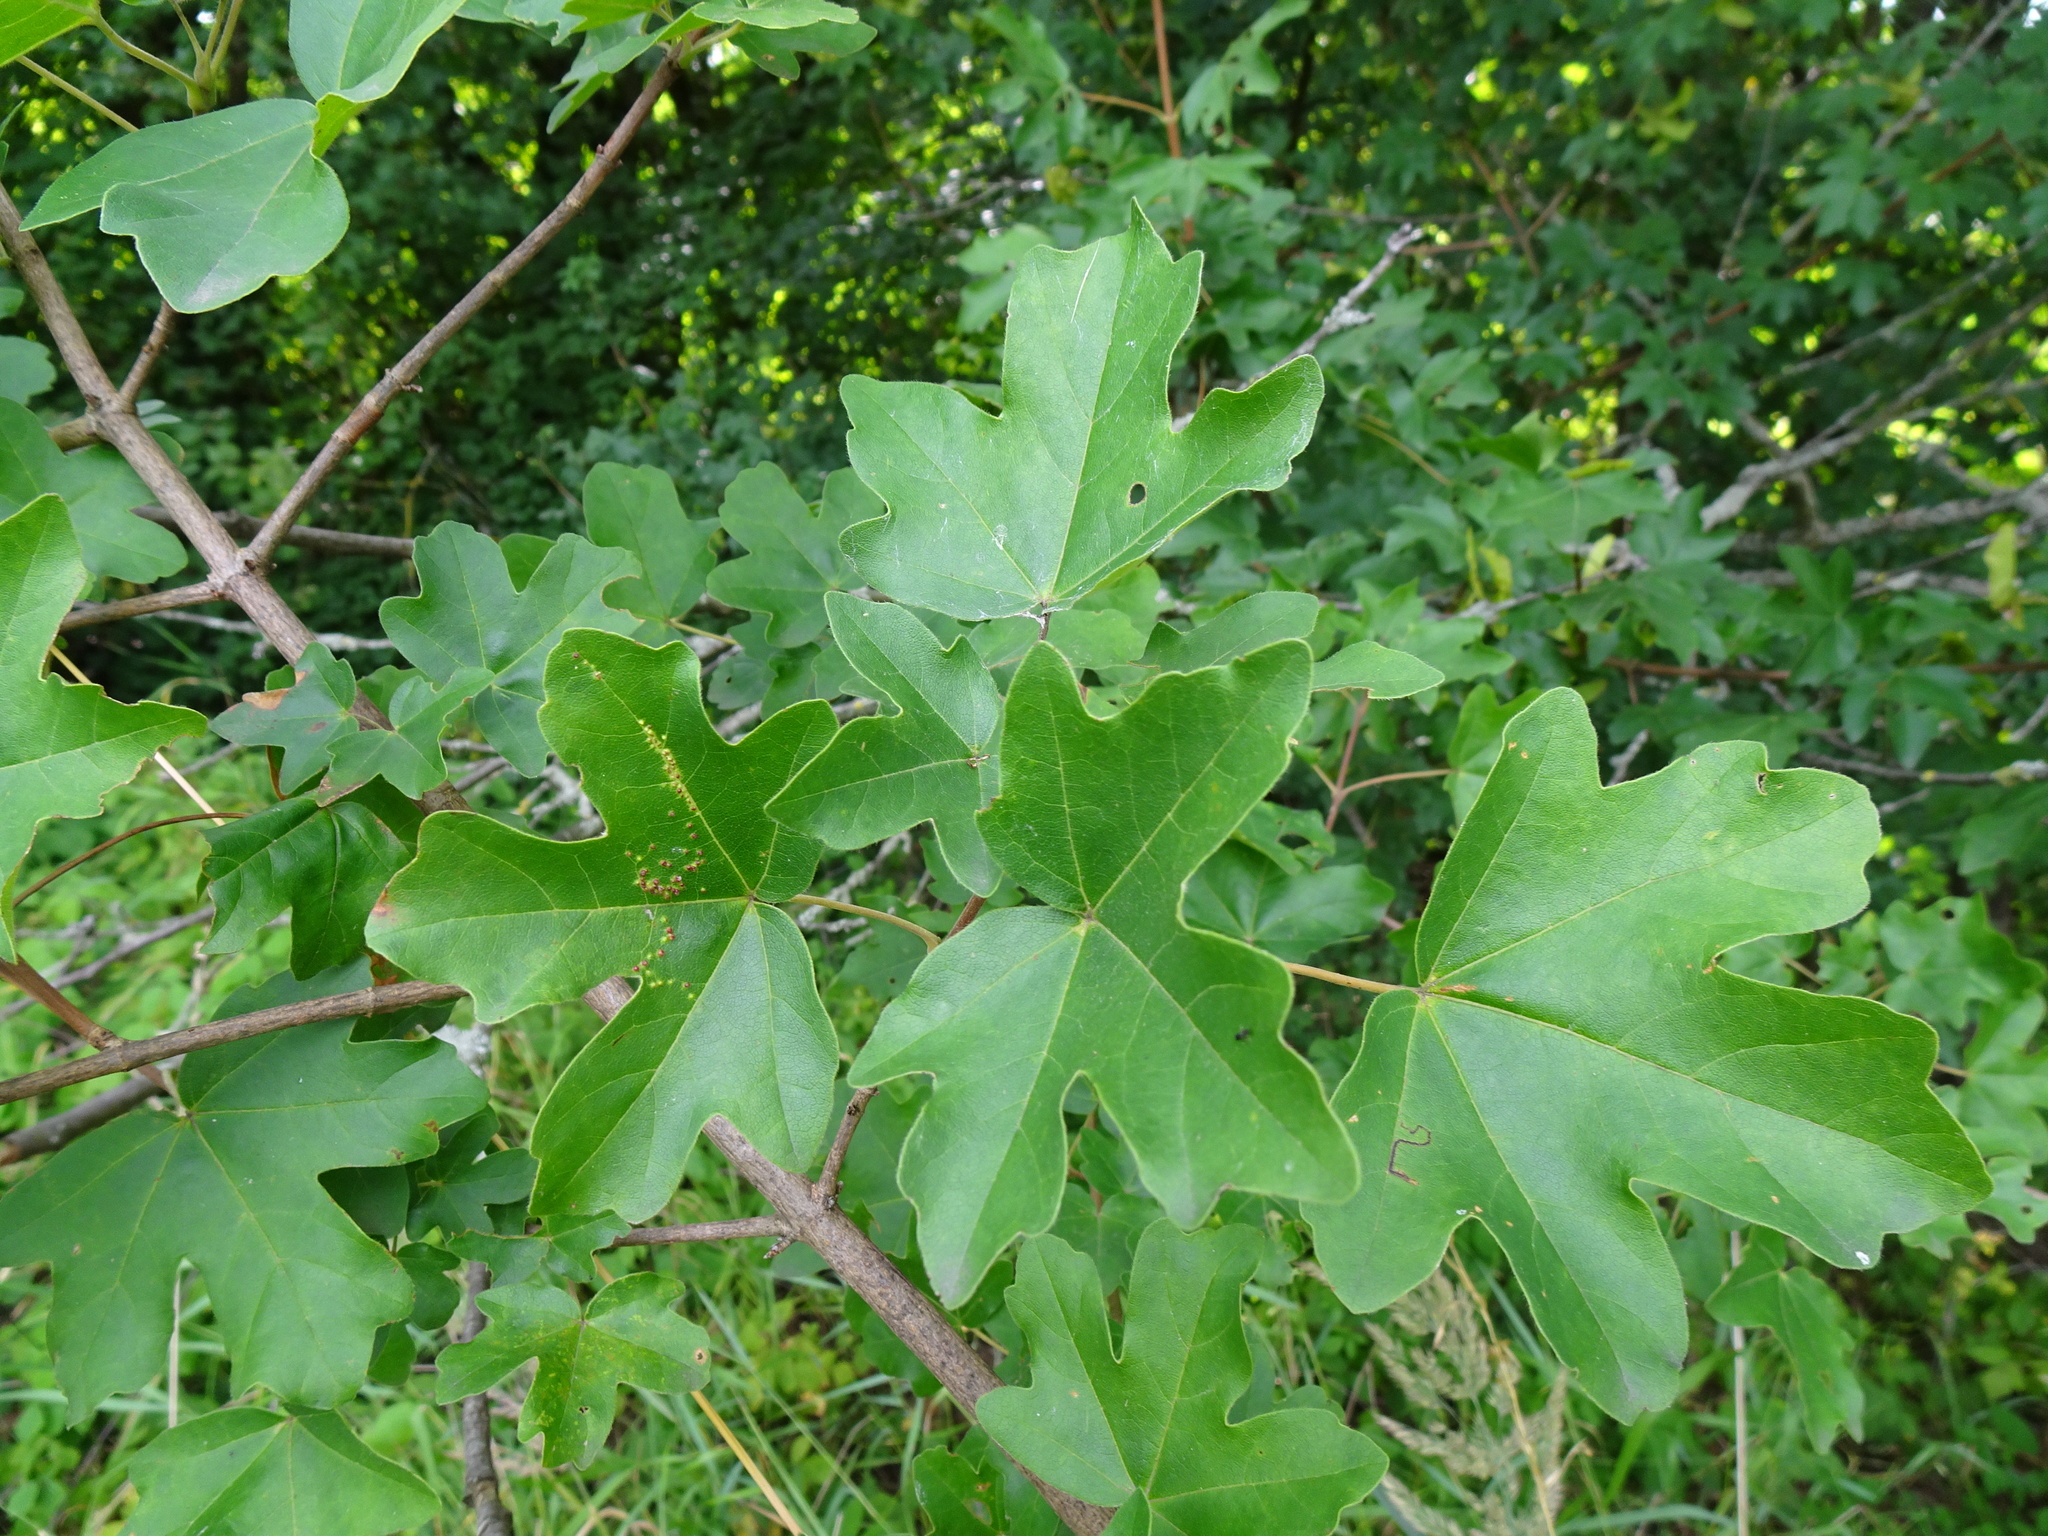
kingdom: Plantae
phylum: Tracheophyta
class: Magnoliopsida
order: Sapindales
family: Sapindaceae
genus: Acer
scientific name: Acer campestre
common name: Field maple
